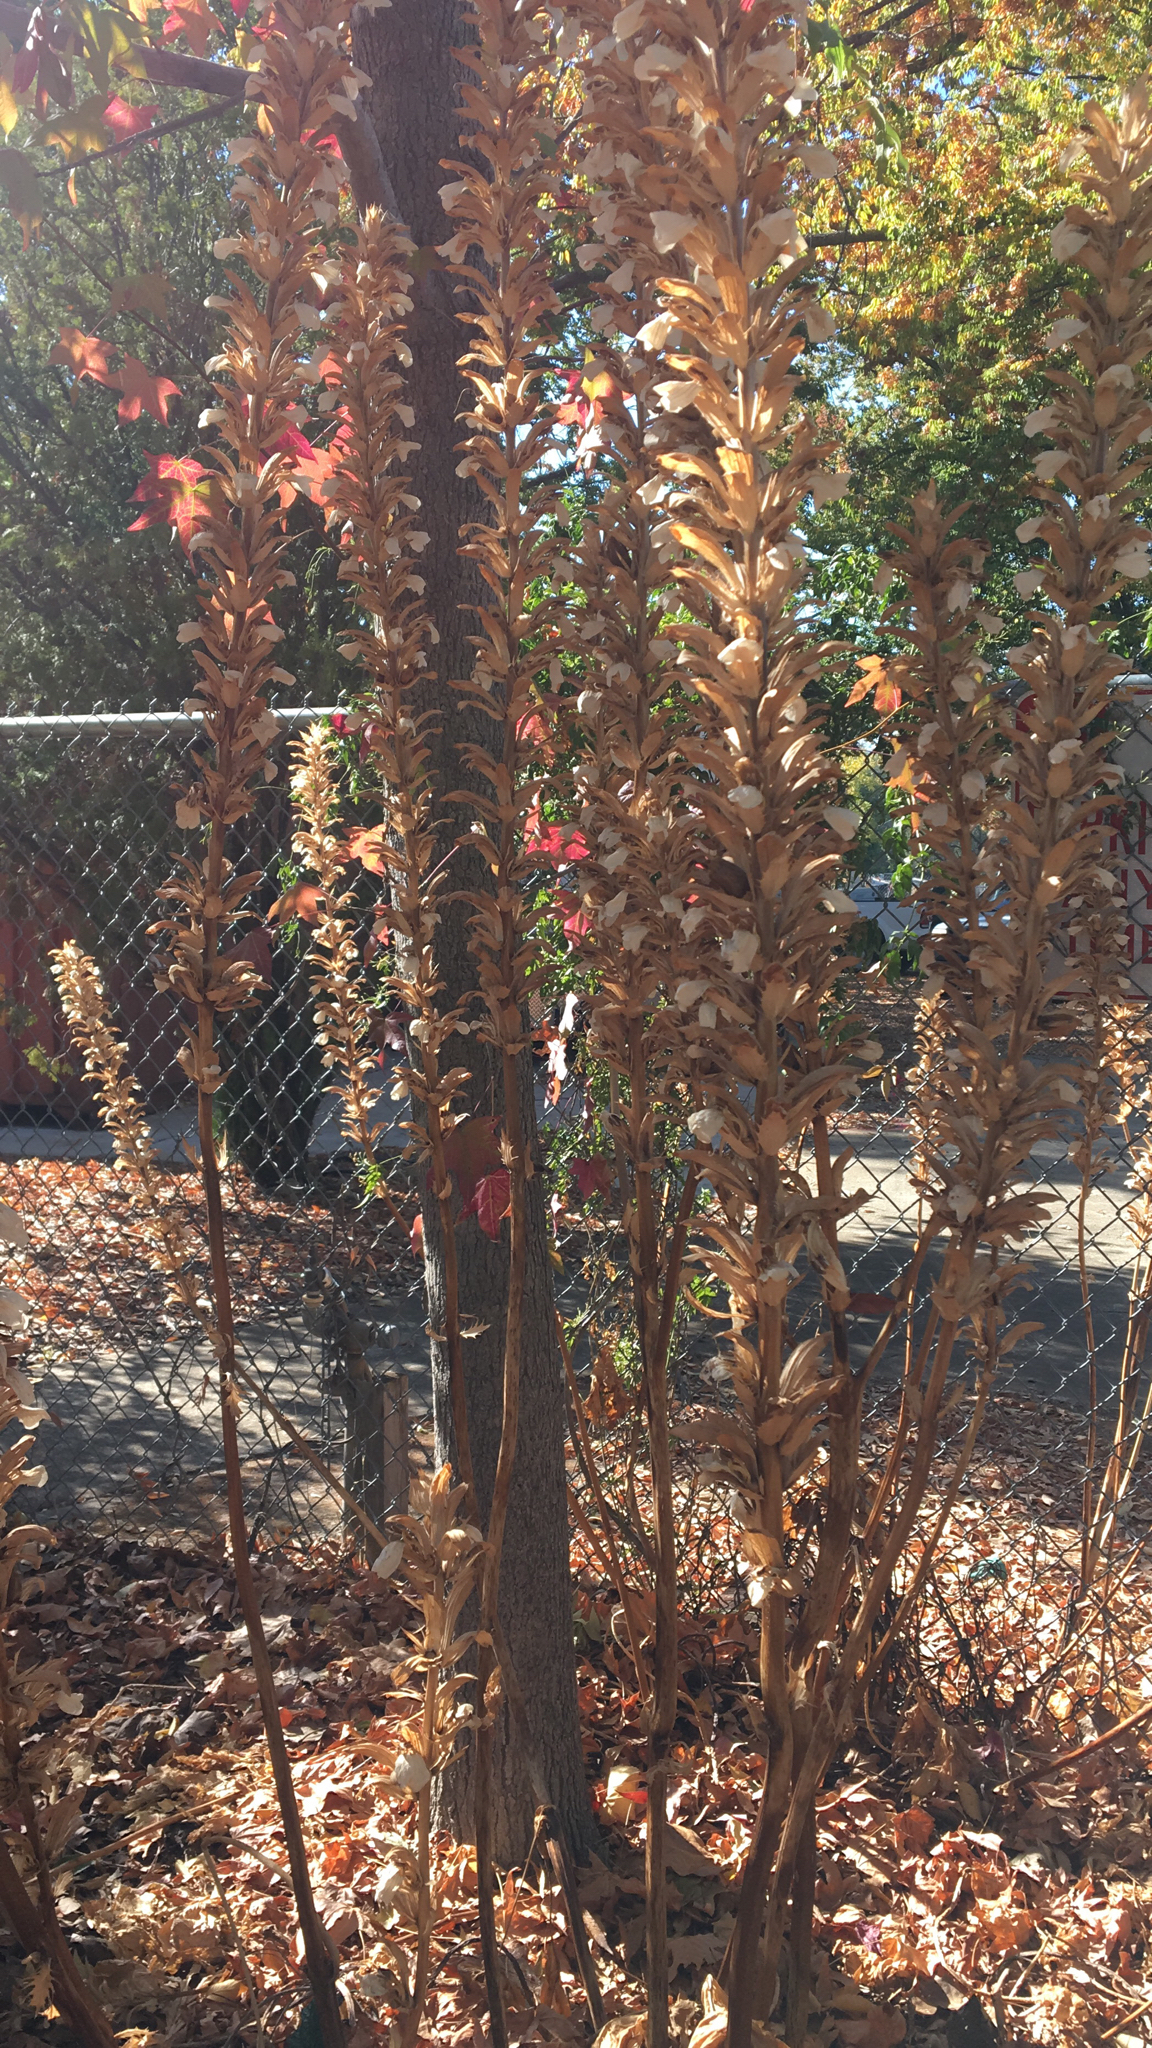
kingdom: Plantae
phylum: Tracheophyta
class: Magnoliopsida
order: Lamiales
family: Acanthaceae
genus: Acanthus
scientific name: Acanthus mollis
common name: Bear's-breech
